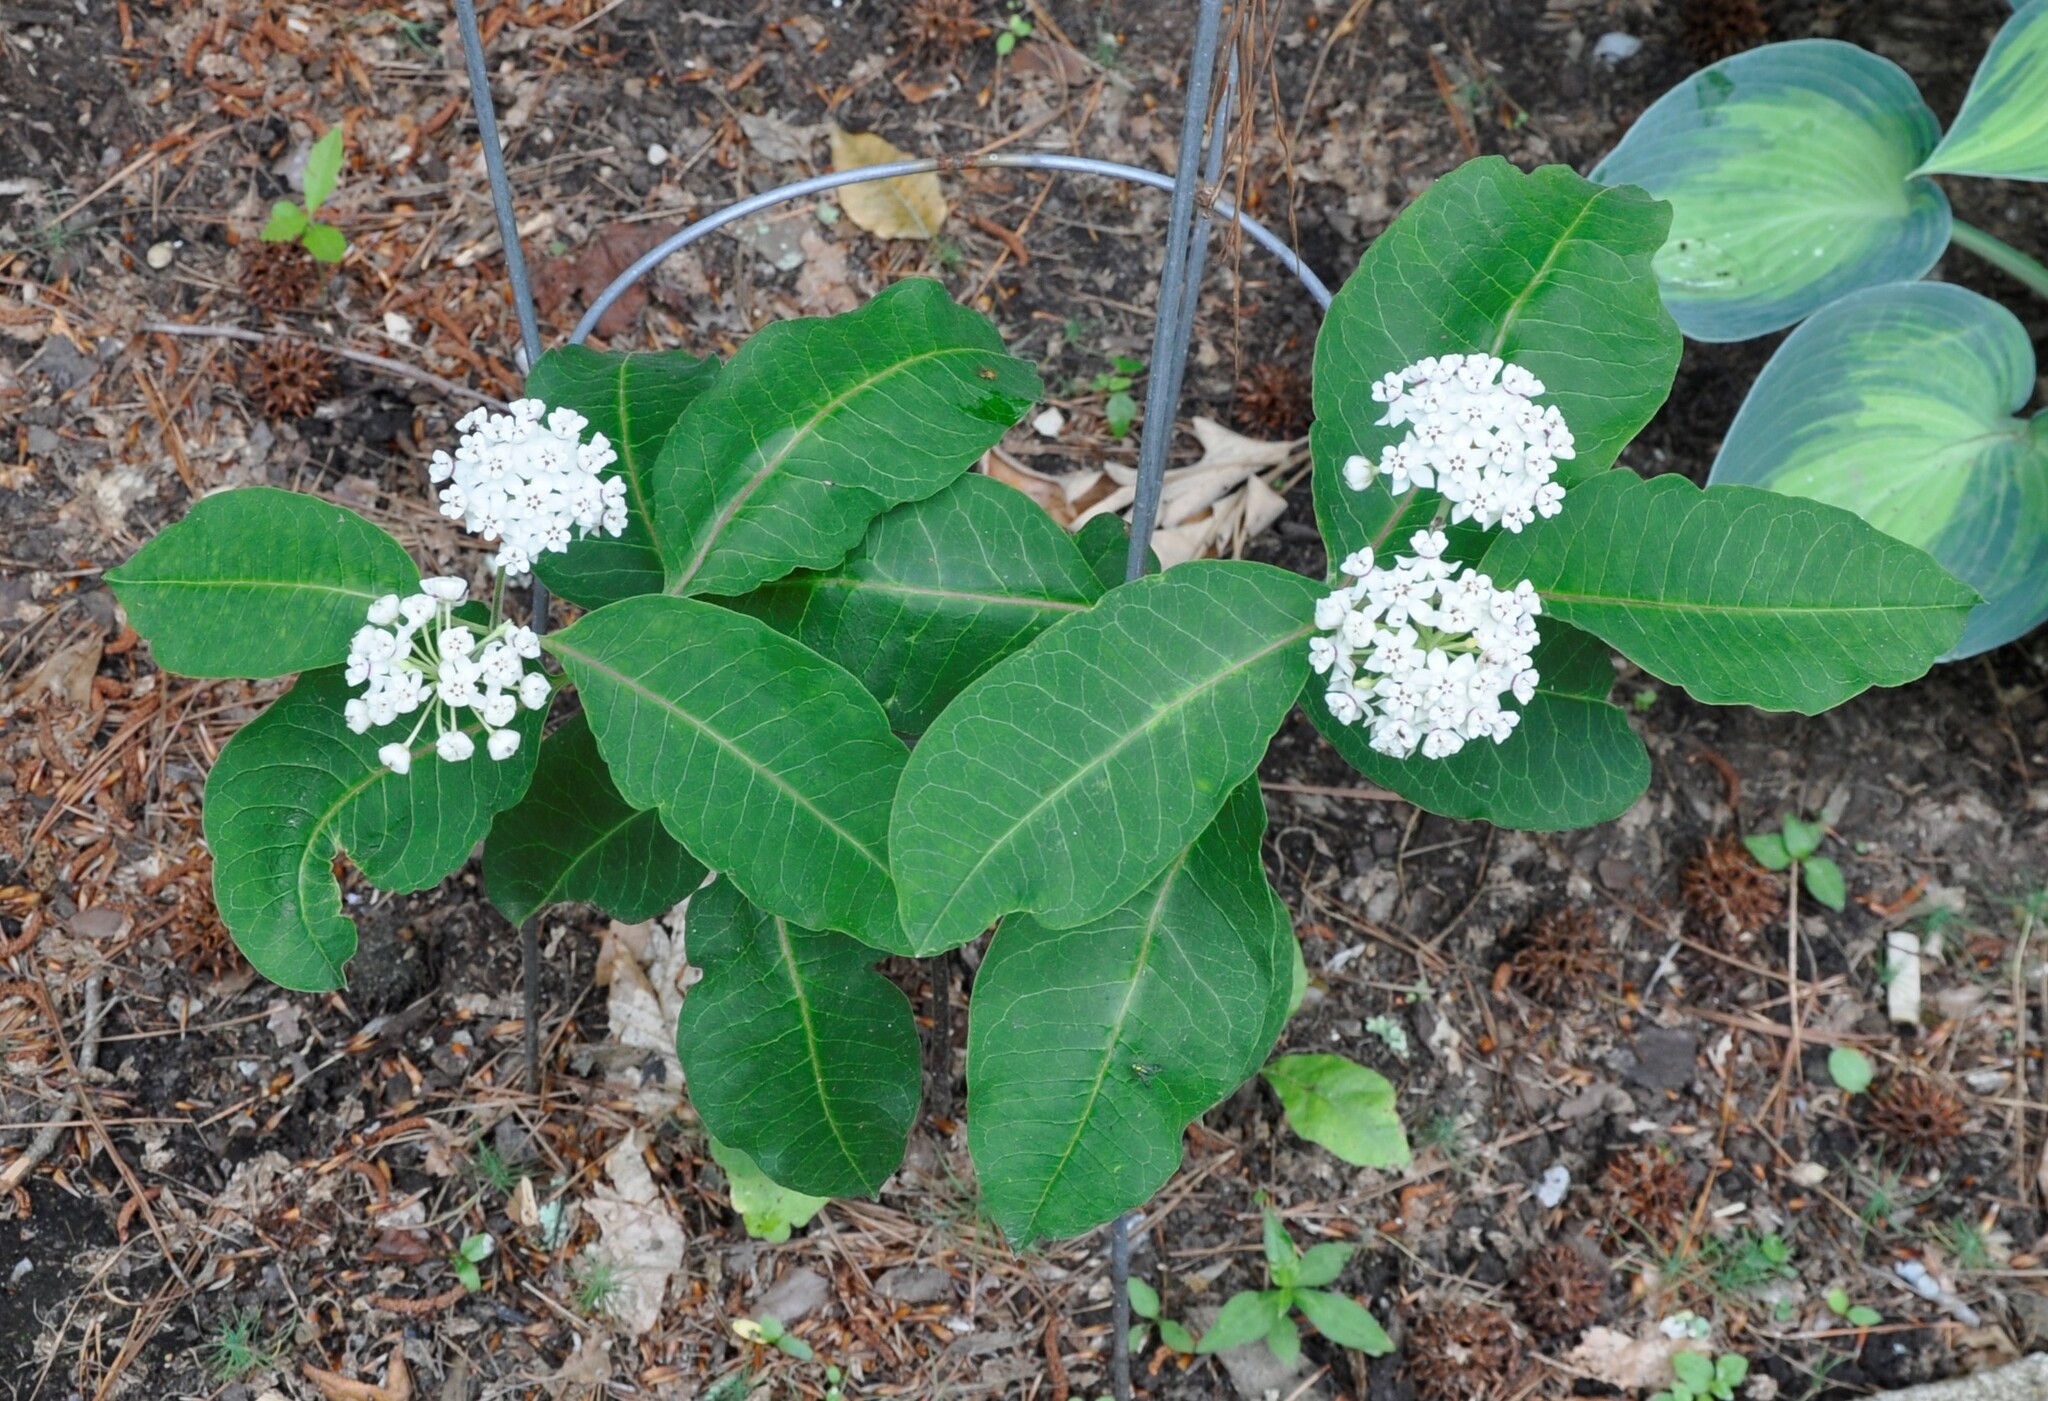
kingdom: Plantae
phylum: Tracheophyta
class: Magnoliopsida
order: Gentianales
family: Apocynaceae
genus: Asclepias
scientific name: Asclepias variegata
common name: Variegated milkweed
